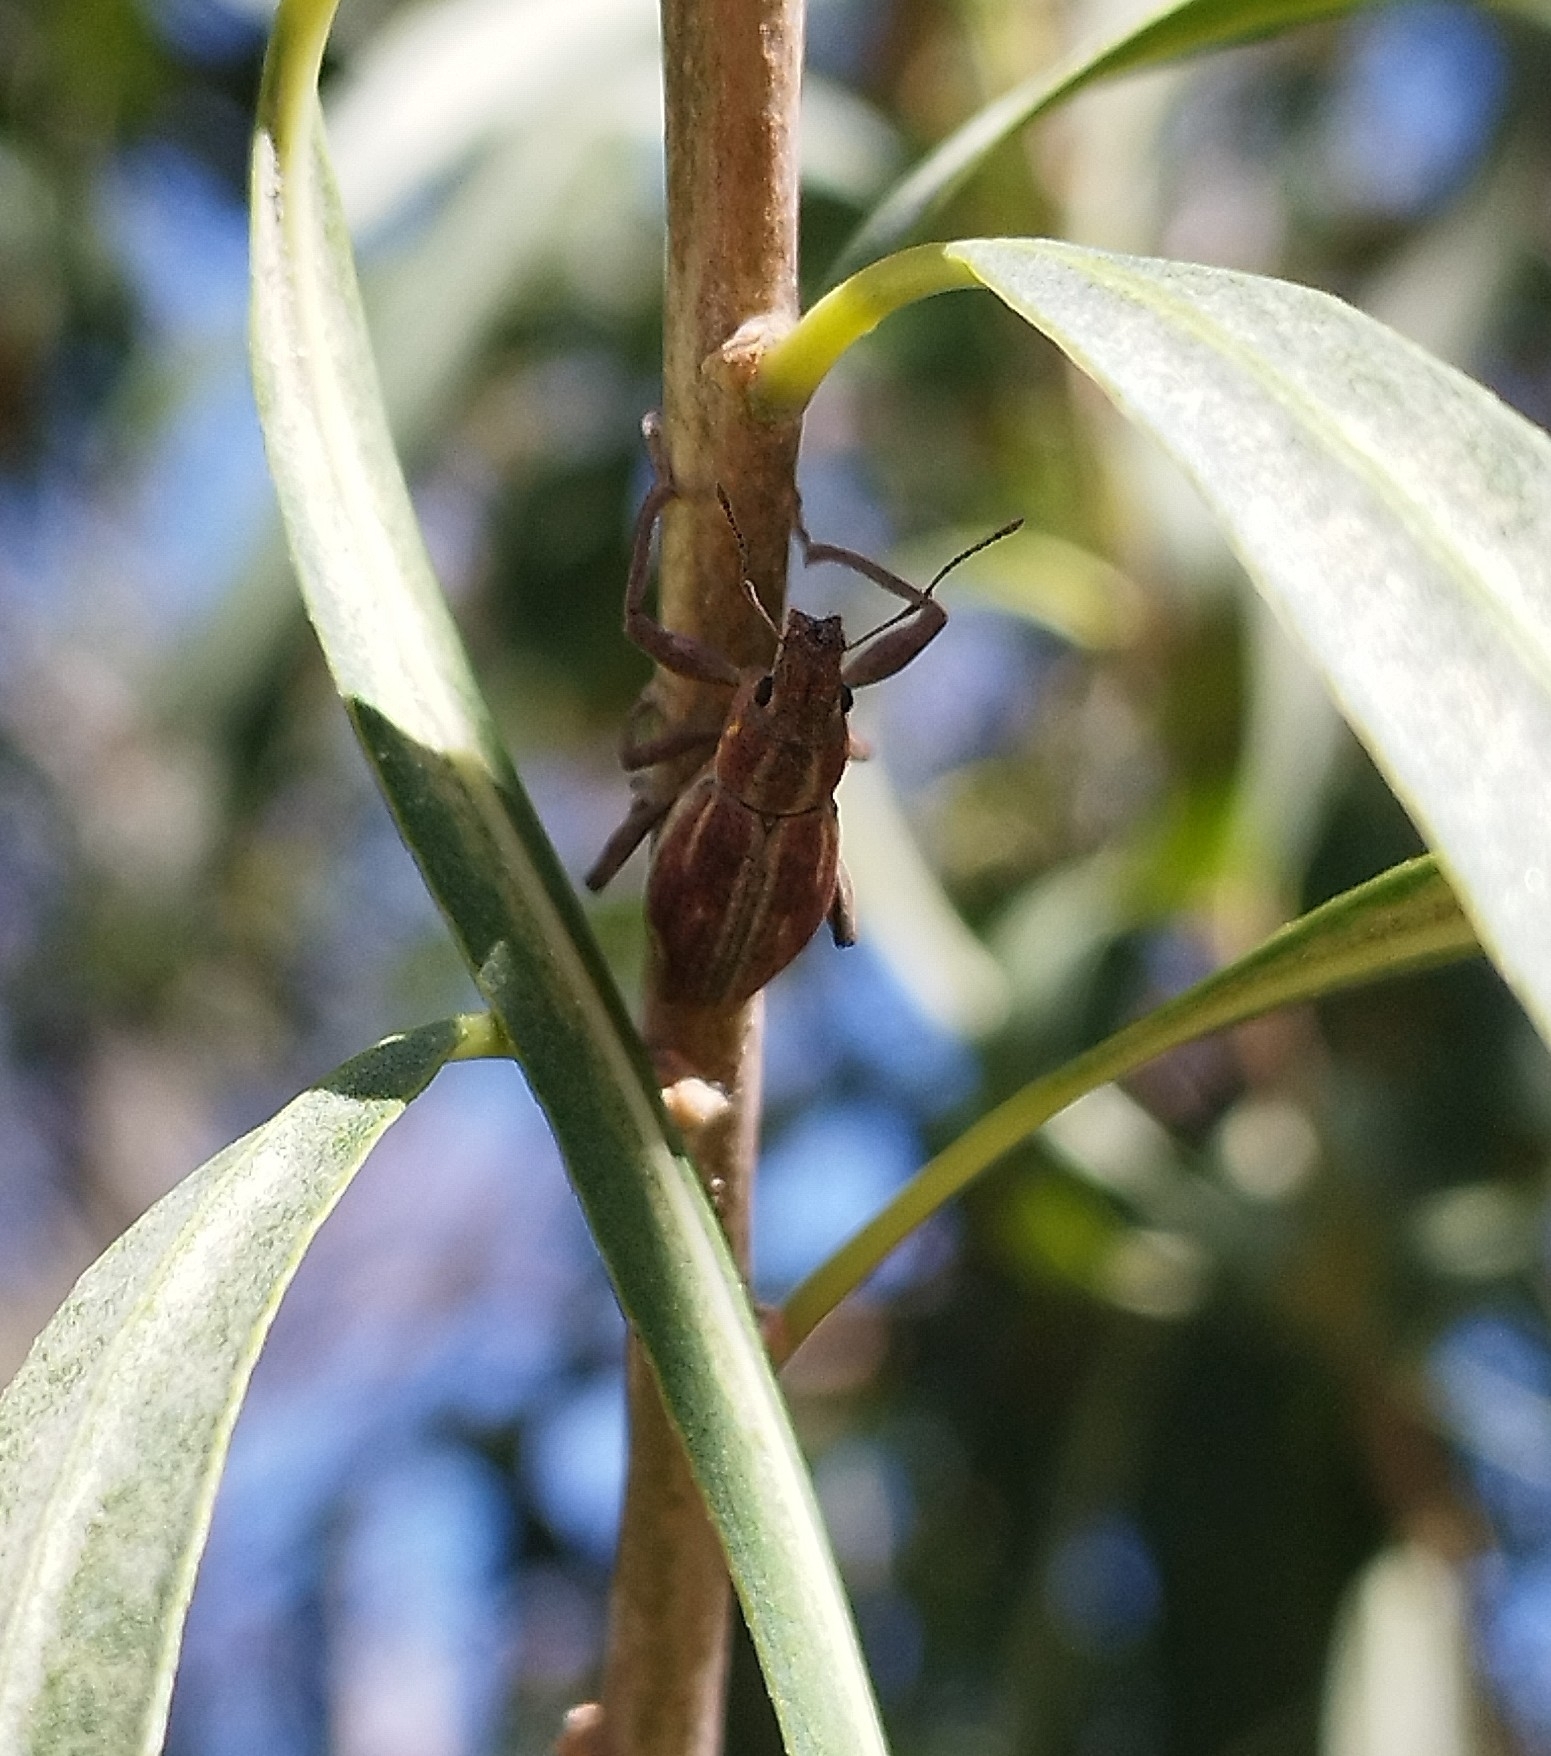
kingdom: Animalia
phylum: Arthropoda
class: Insecta
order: Coleoptera
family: Curculionidae
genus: Naupactus
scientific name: Naupactus xanthographus
